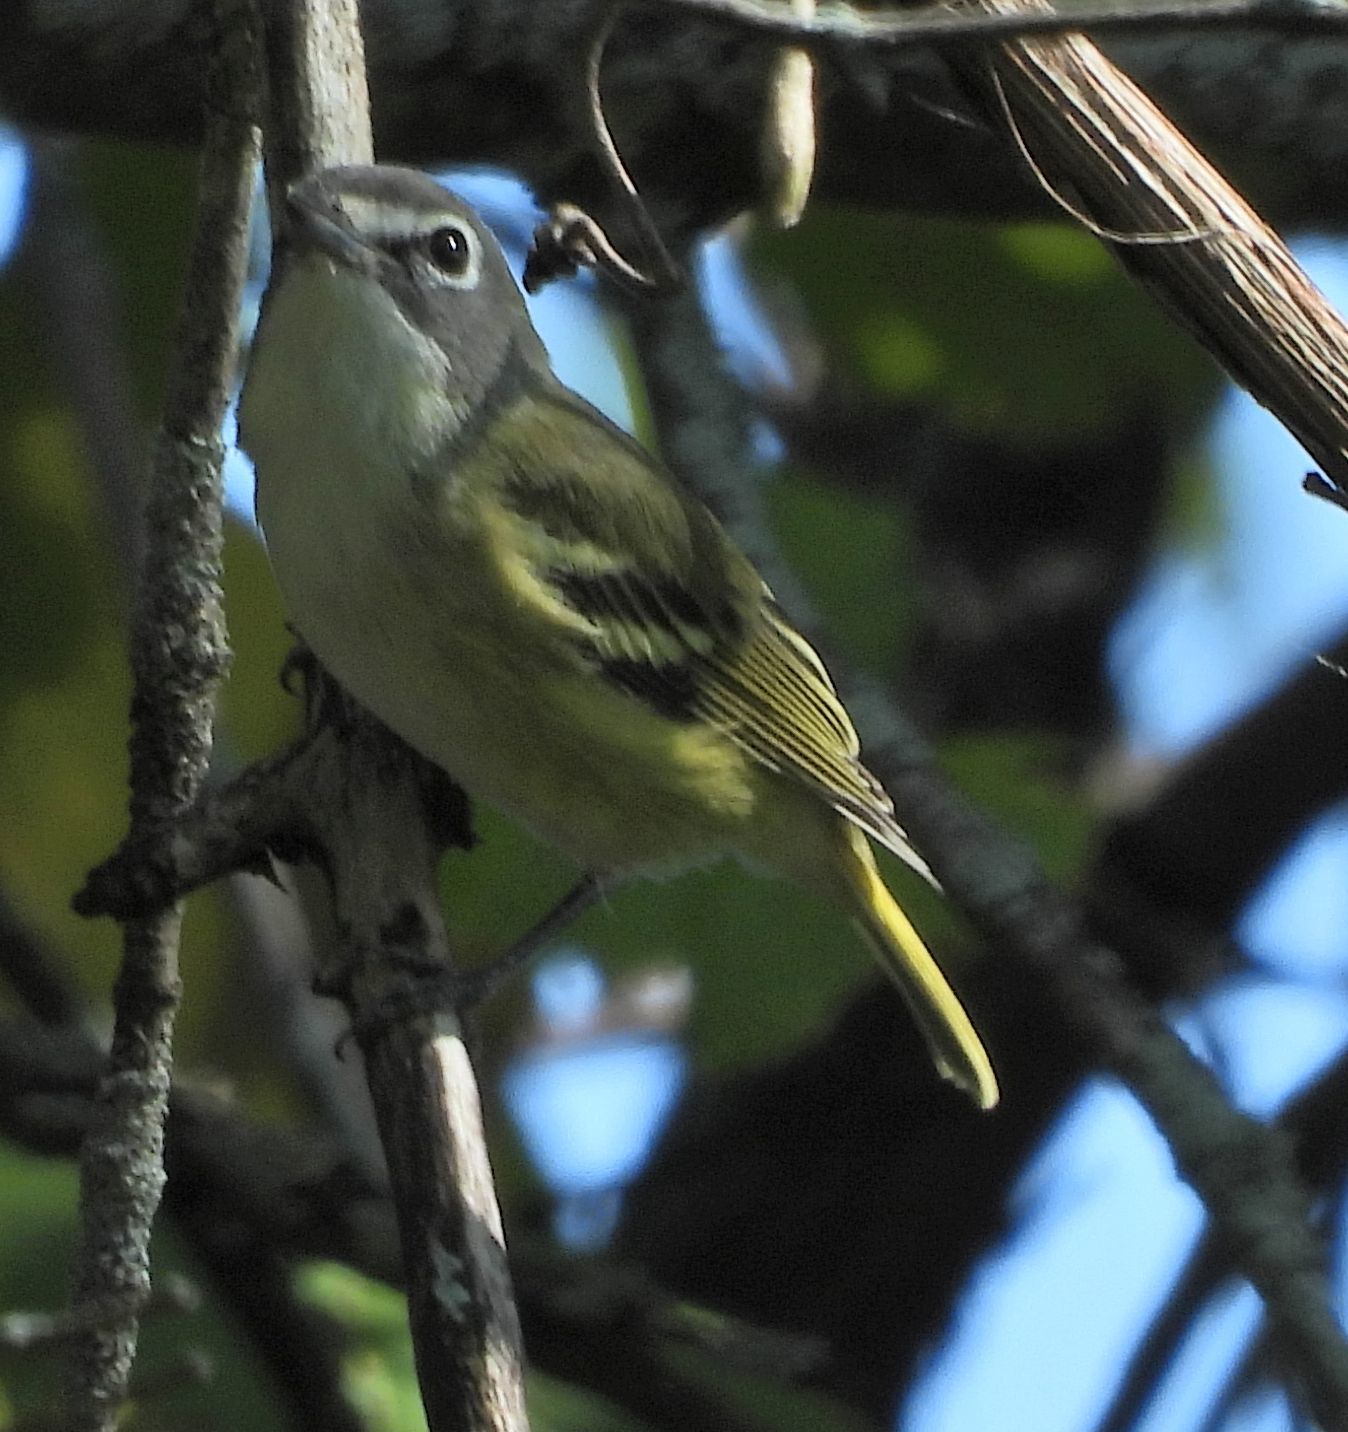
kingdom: Animalia
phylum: Chordata
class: Aves
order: Passeriformes
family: Vireonidae
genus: Vireo
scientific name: Vireo solitarius
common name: Blue-headed vireo
